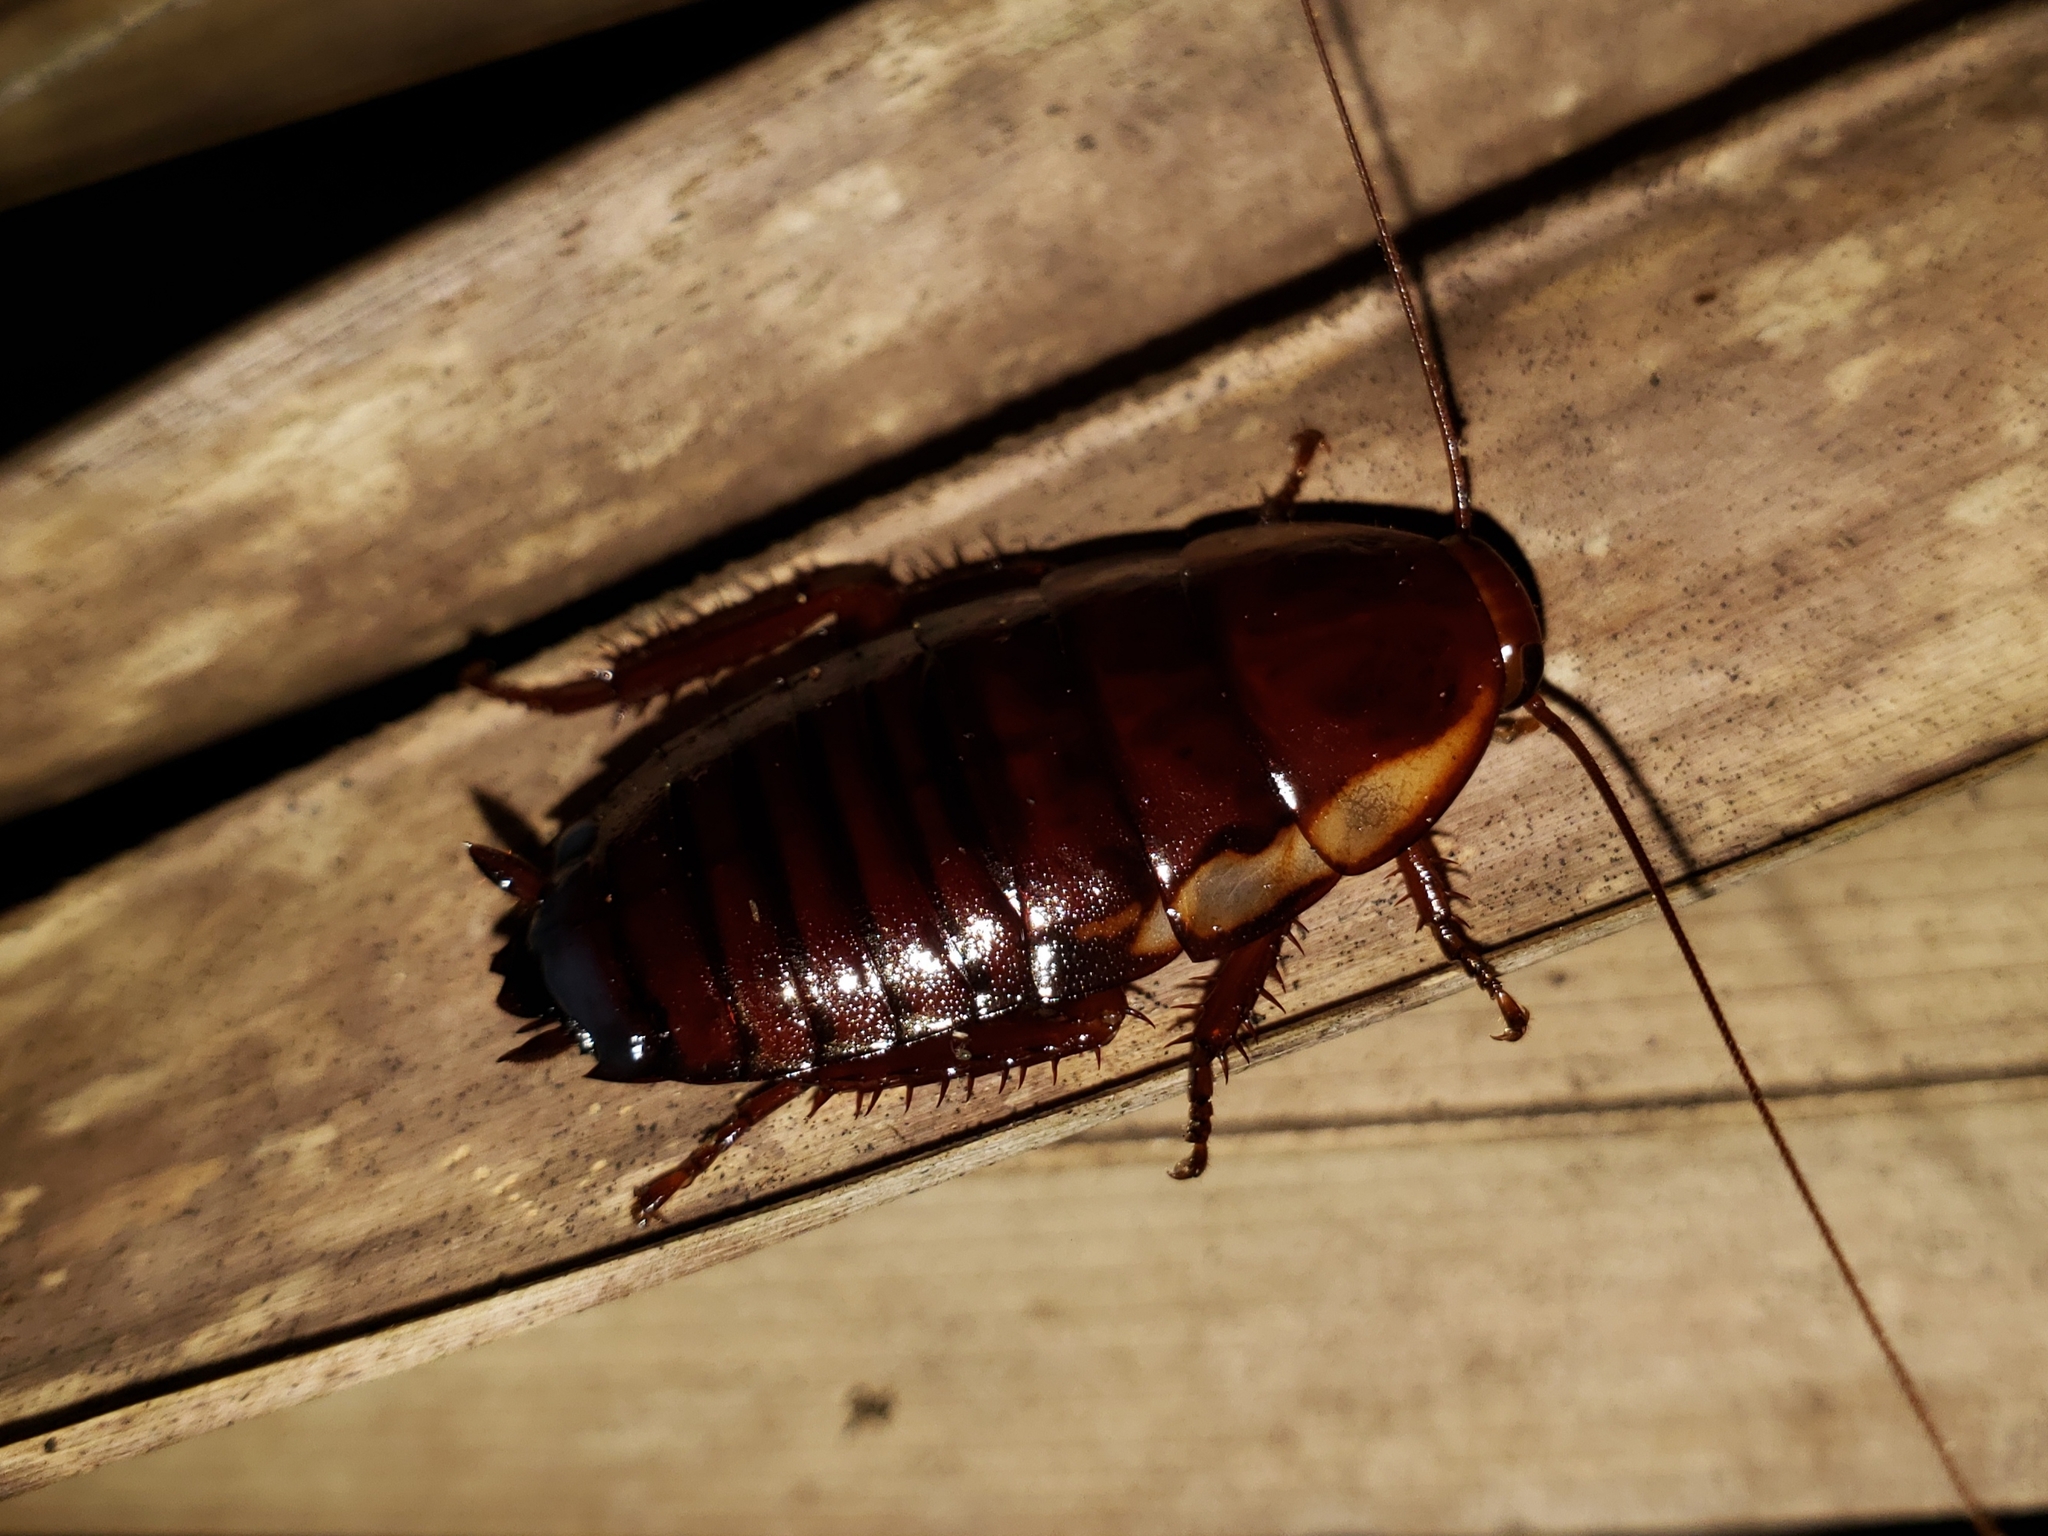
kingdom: Animalia
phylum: Arthropoda
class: Insecta
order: Blattodea
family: Blattidae
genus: Eurycotis
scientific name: Eurycotis floridana
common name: Florida cockroach
